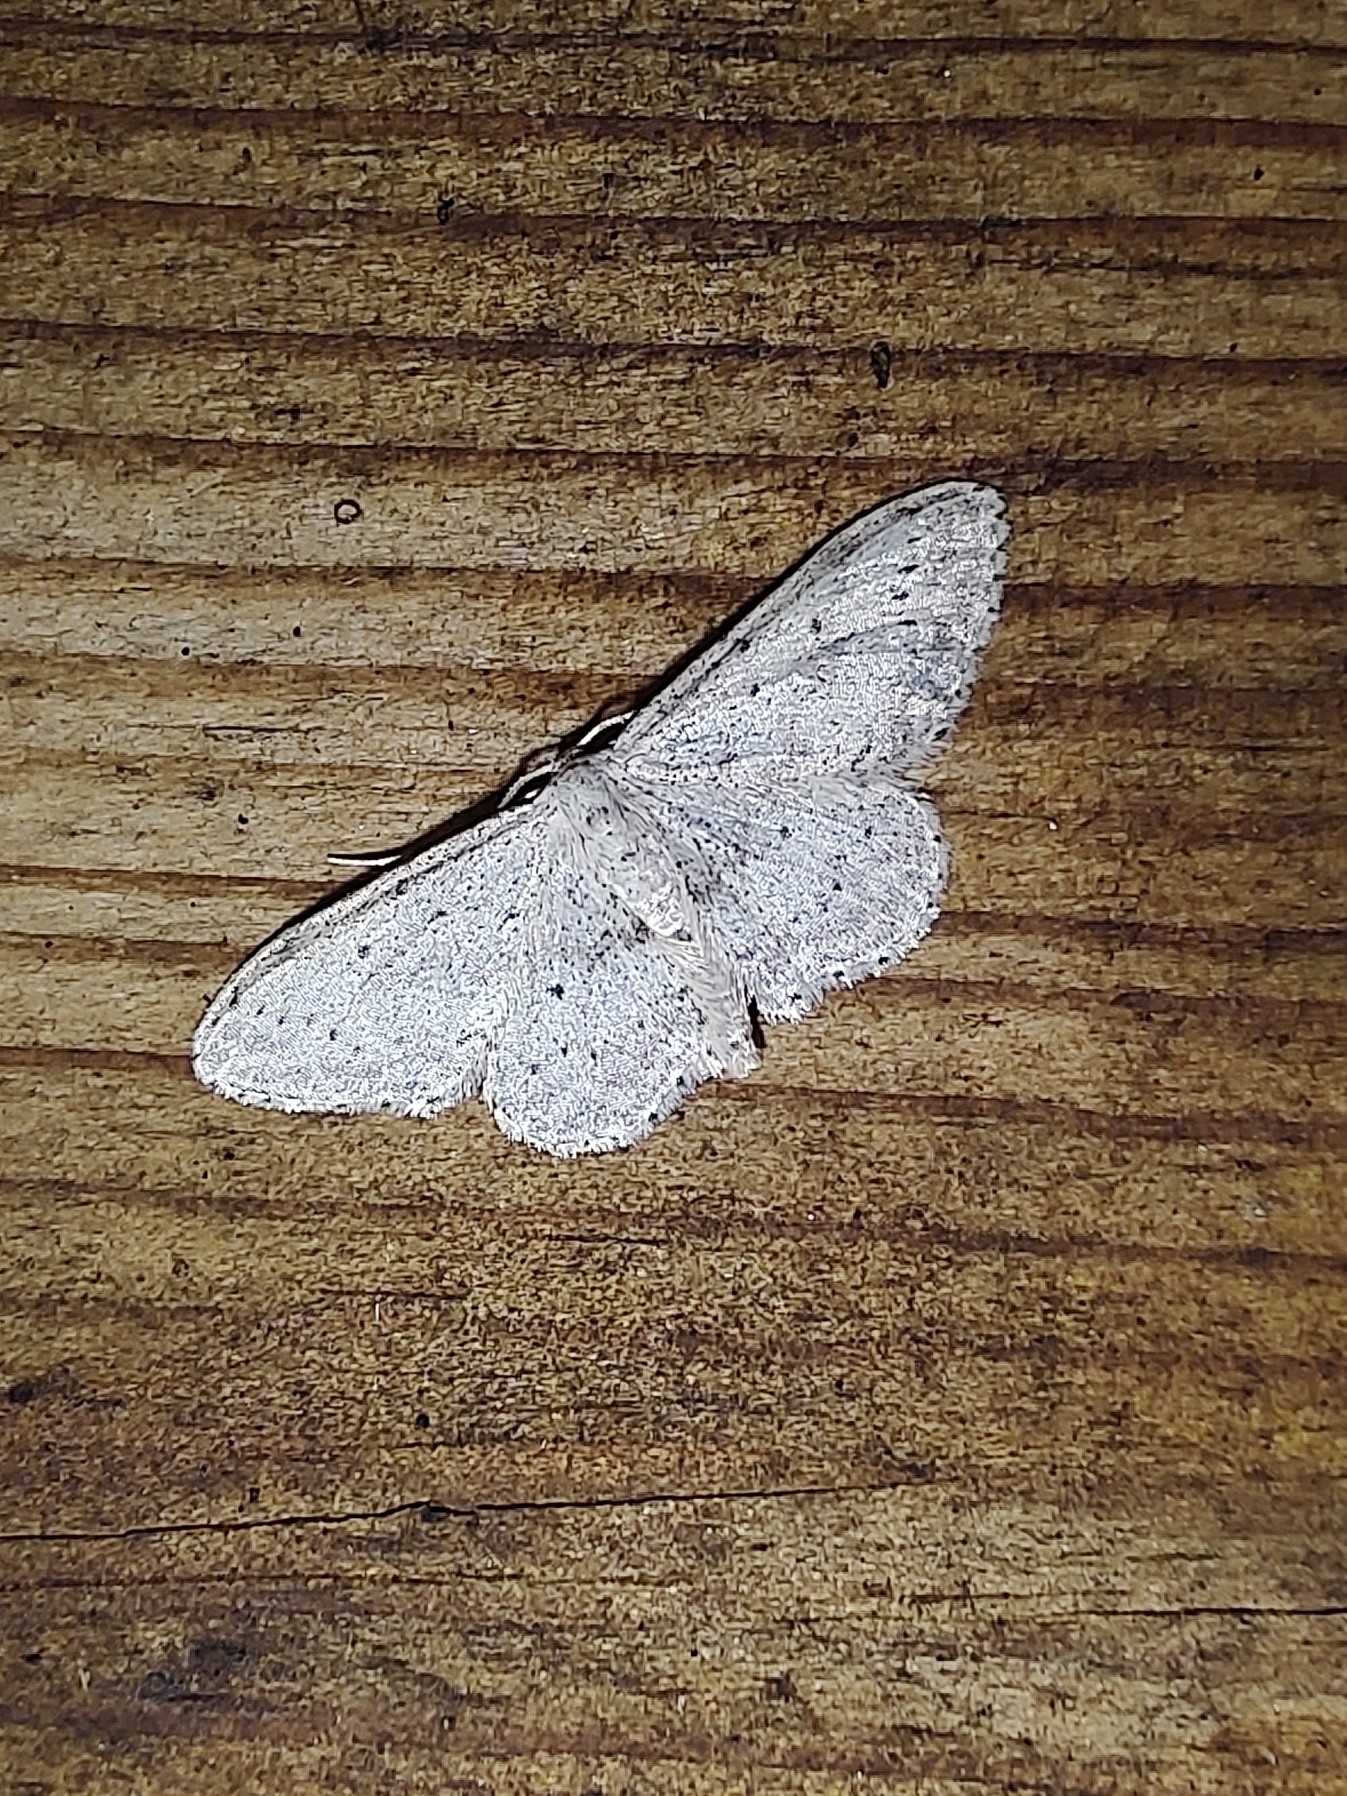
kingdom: Animalia
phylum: Arthropoda
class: Insecta
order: Lepidoptera
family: Geometridae
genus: Idaea
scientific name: Idaea seriata
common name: Small dusty wave
